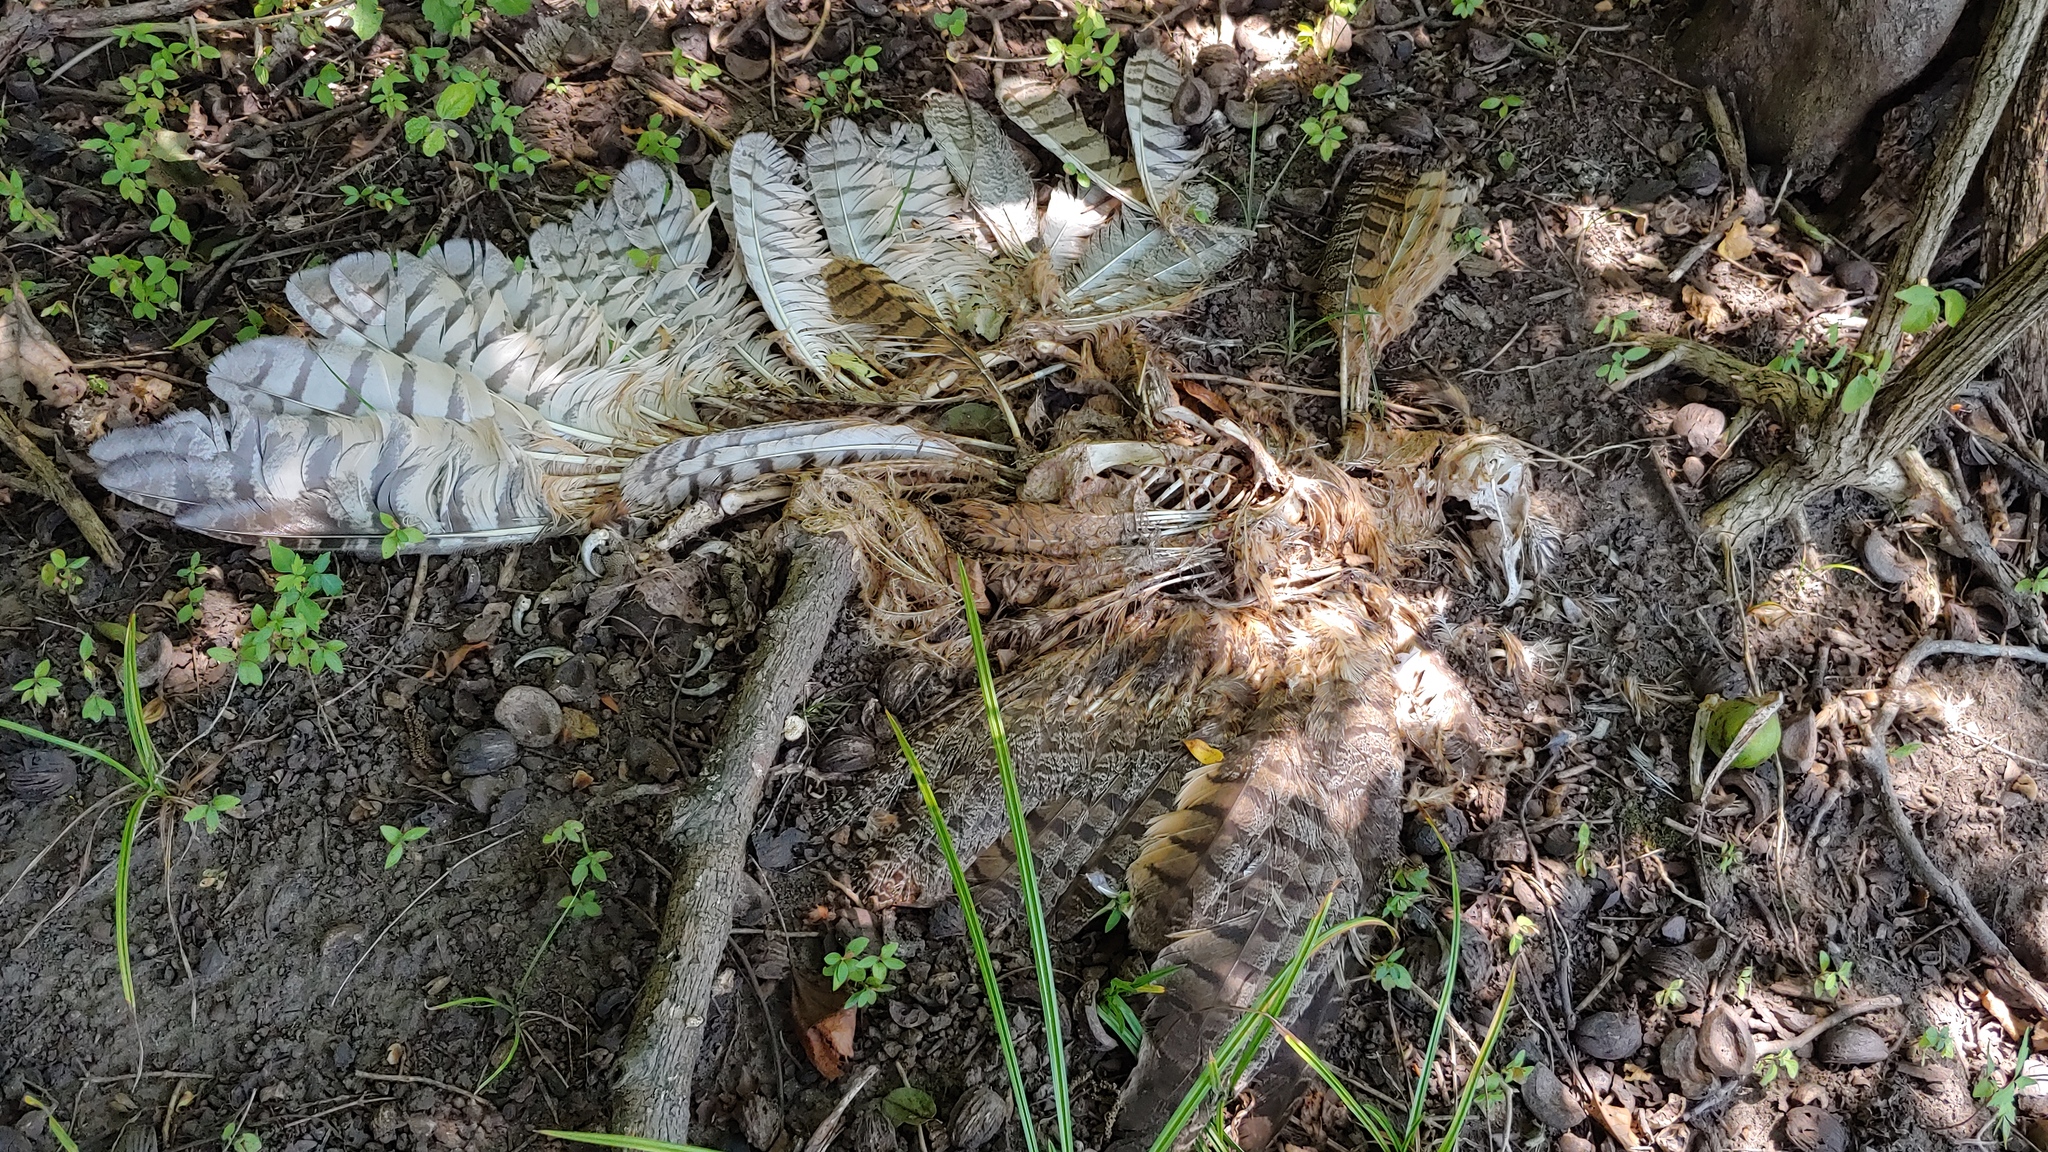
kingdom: Animalia
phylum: Chordata
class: Aves
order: Strigiformes
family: Strigidae
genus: Bubo
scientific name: Bubo virginianus
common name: Great horned owl
